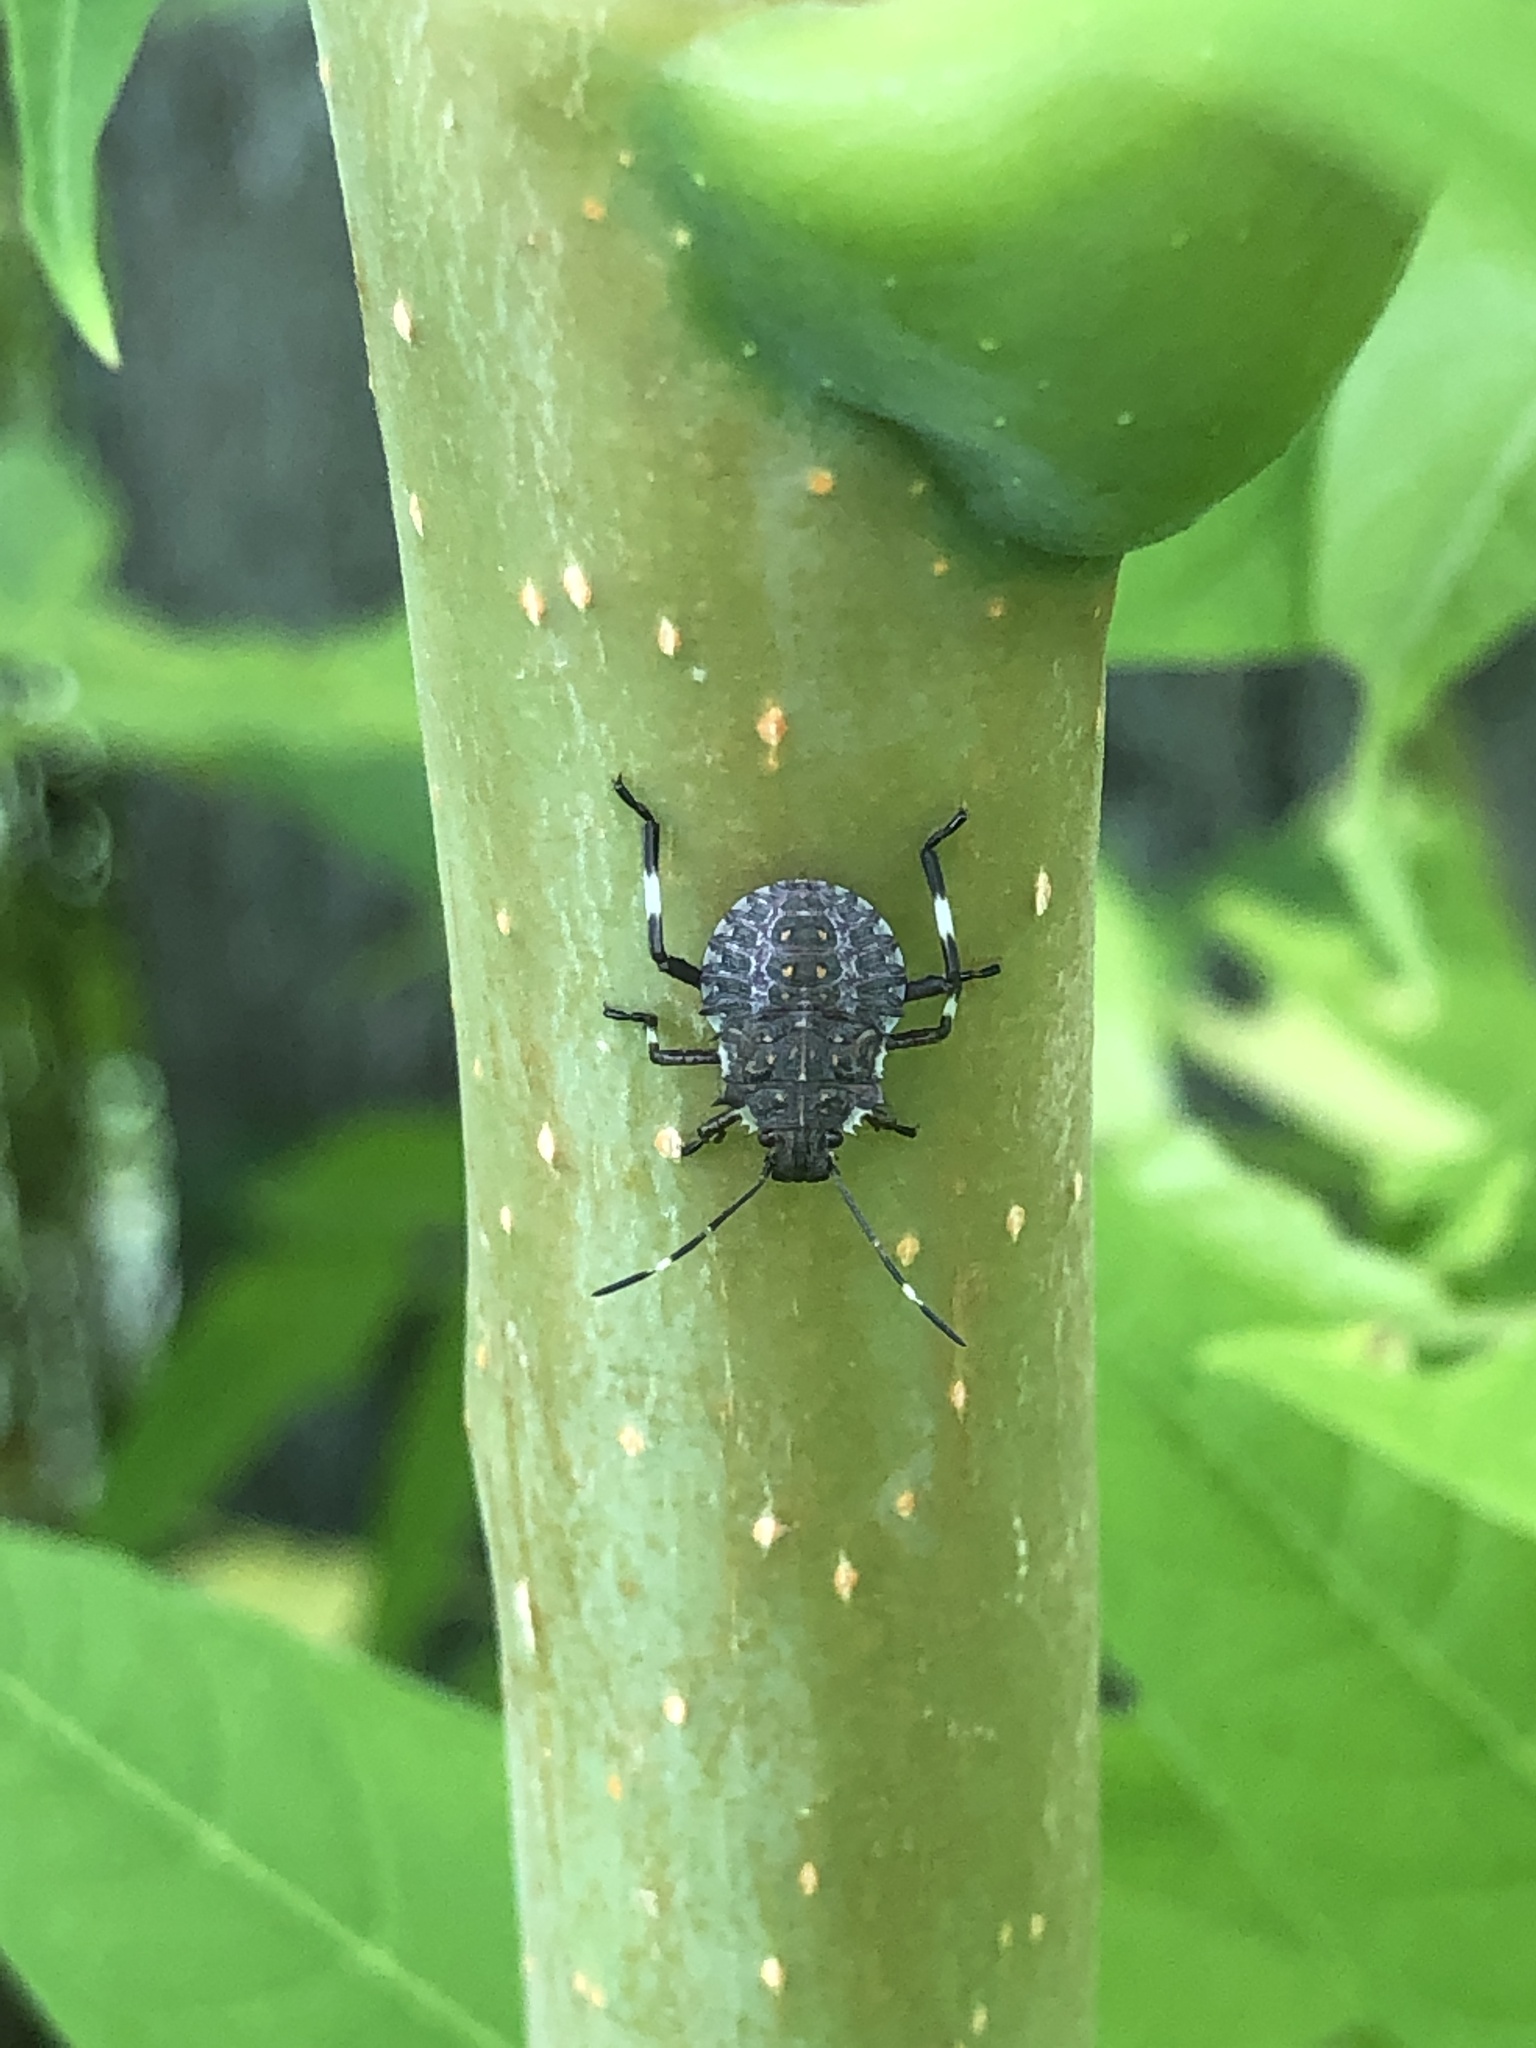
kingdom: Animalia
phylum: Arthropoda
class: Insecta
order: Hemiptera
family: Pentatomidae
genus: Halyomorpha
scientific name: Halyomorpha halys
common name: Brown marmorated stink bug
